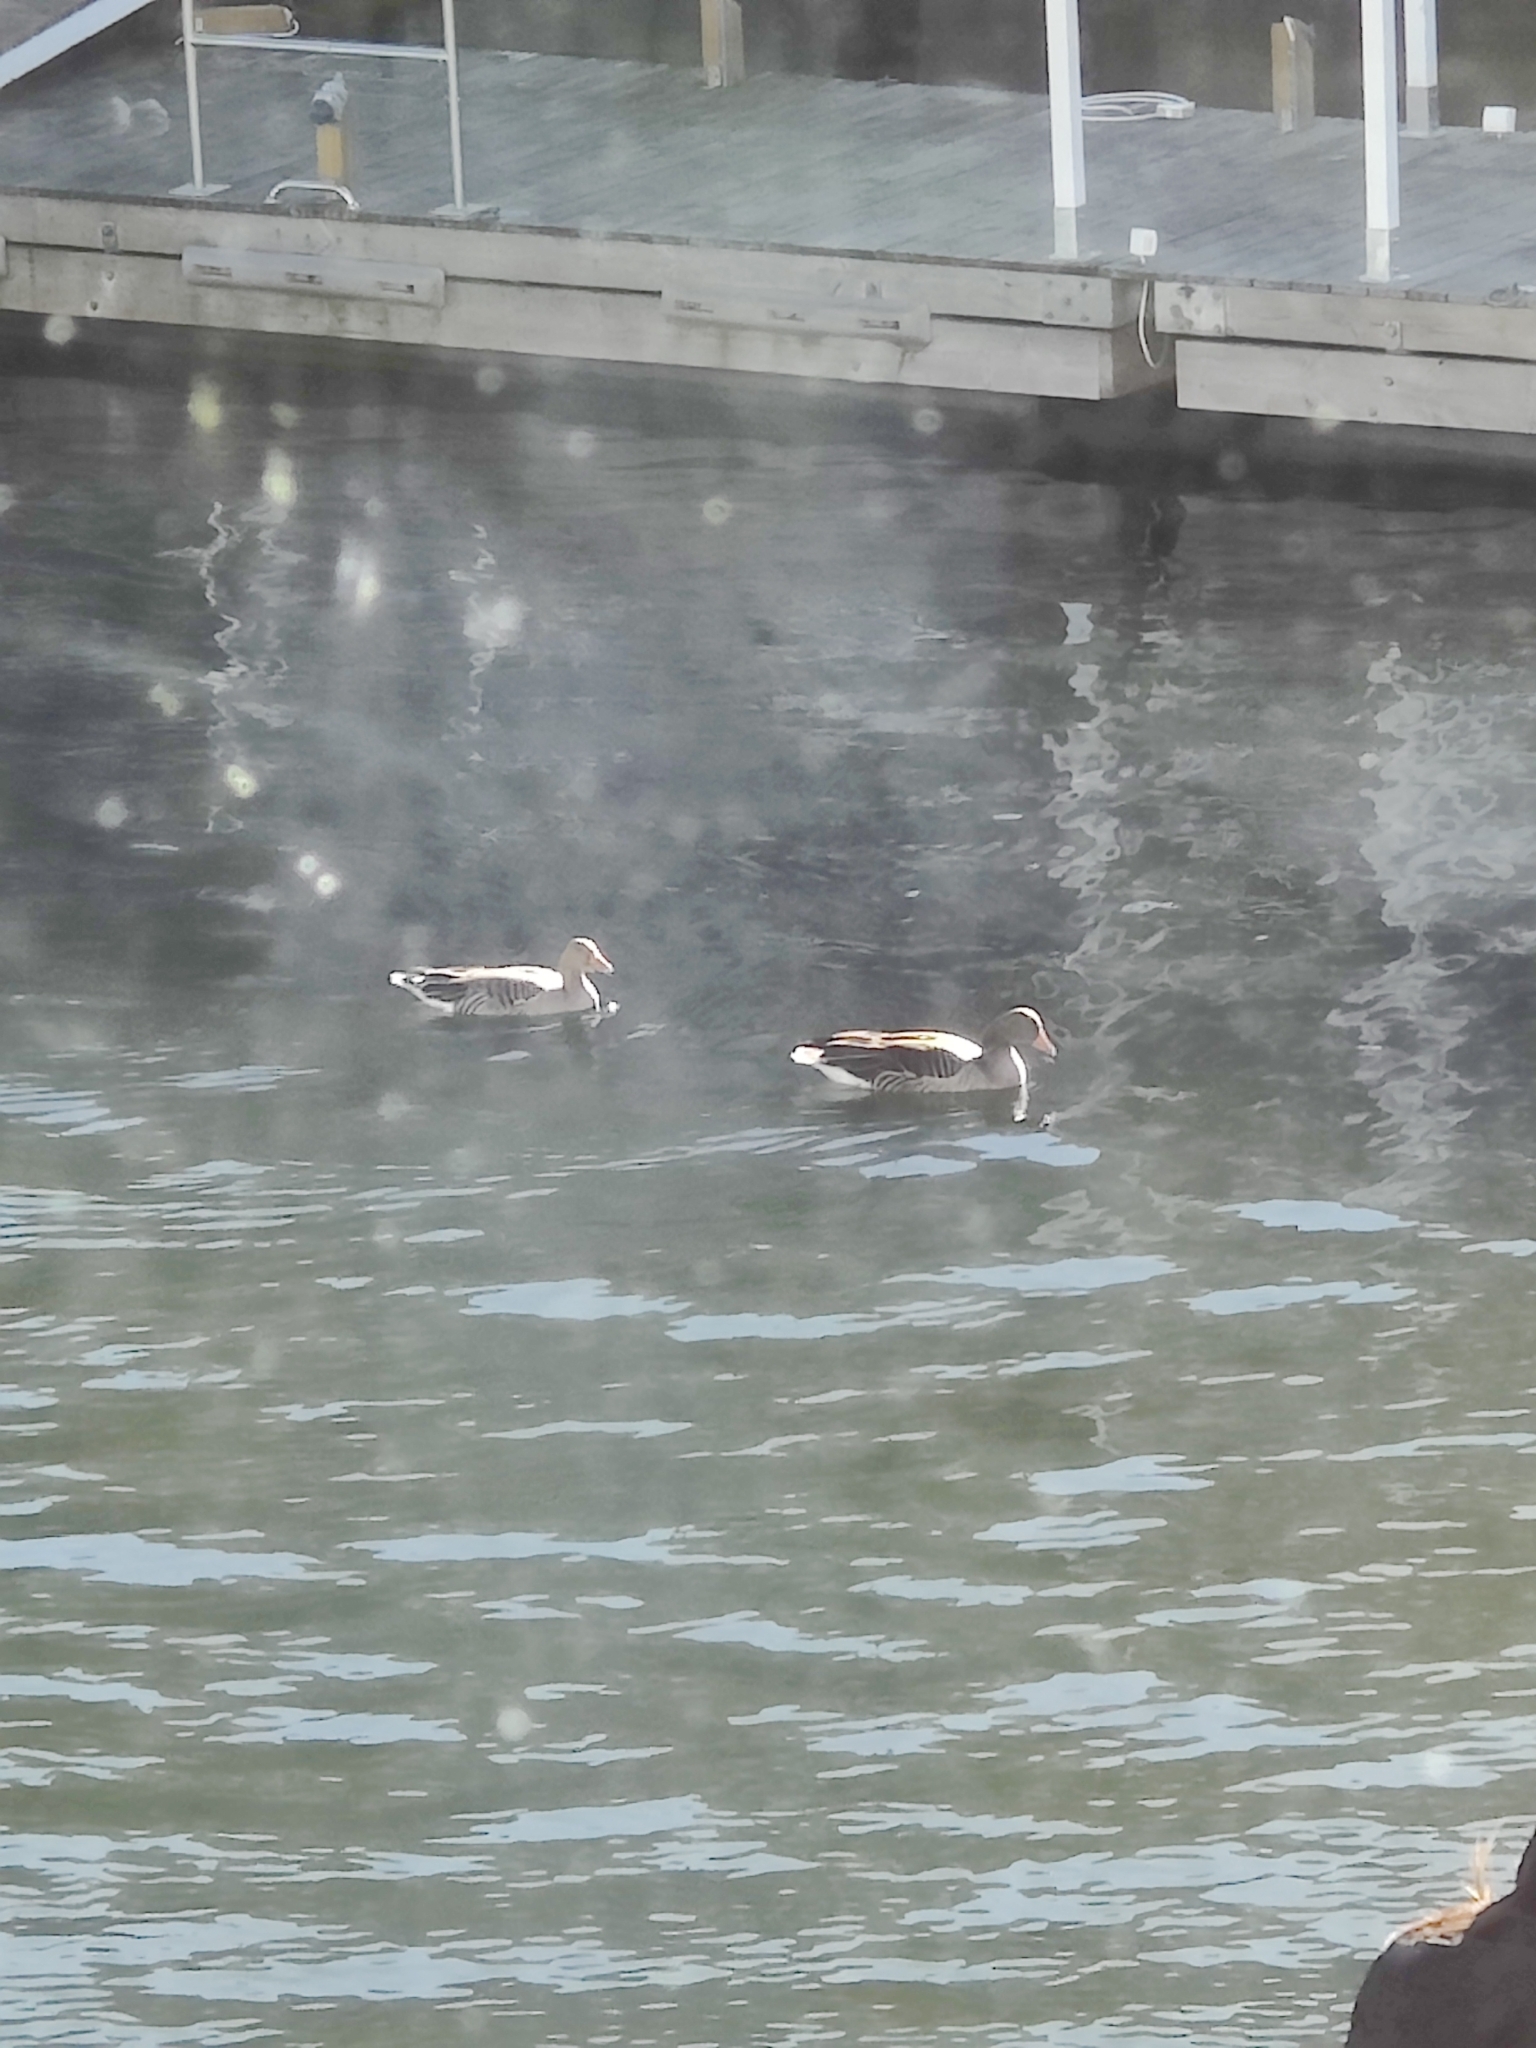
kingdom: Animalia
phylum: Chordata
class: Aves
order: Anseriformes
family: Anatidae
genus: Anser
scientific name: Anser anser
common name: Greylag goose
